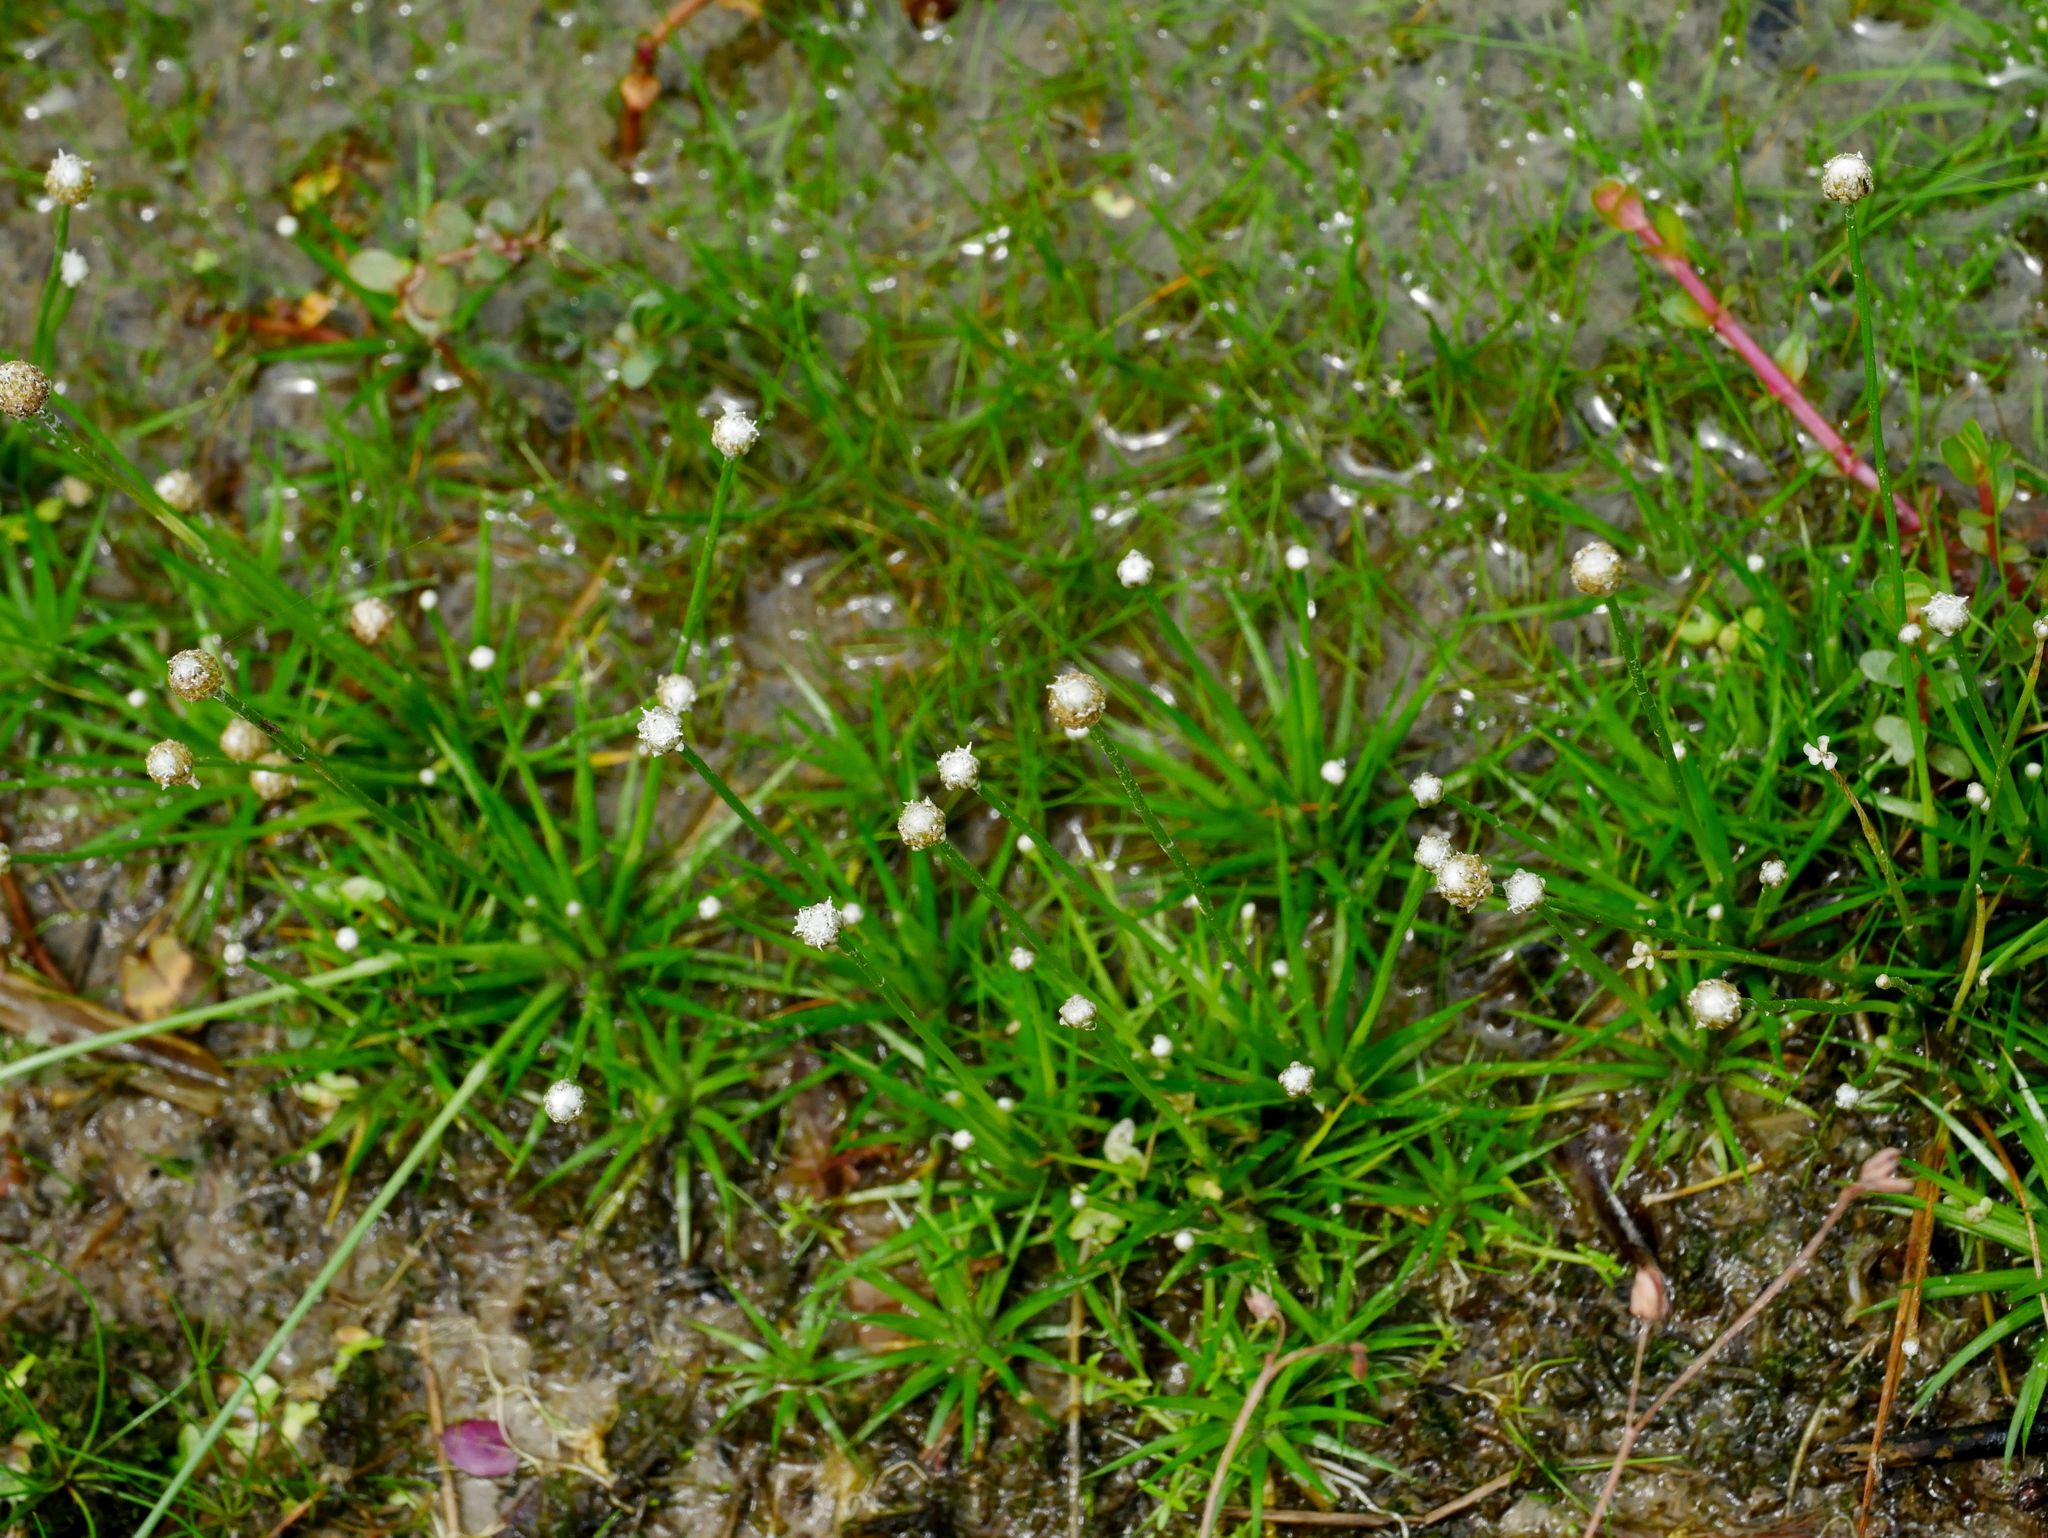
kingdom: Plantae
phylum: Tracheophyta
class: Liliopsida
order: Poales
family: Eriocaulaceae
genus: Eriocaulon
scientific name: Eriocaulon cinereum
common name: Ashy pipewort
